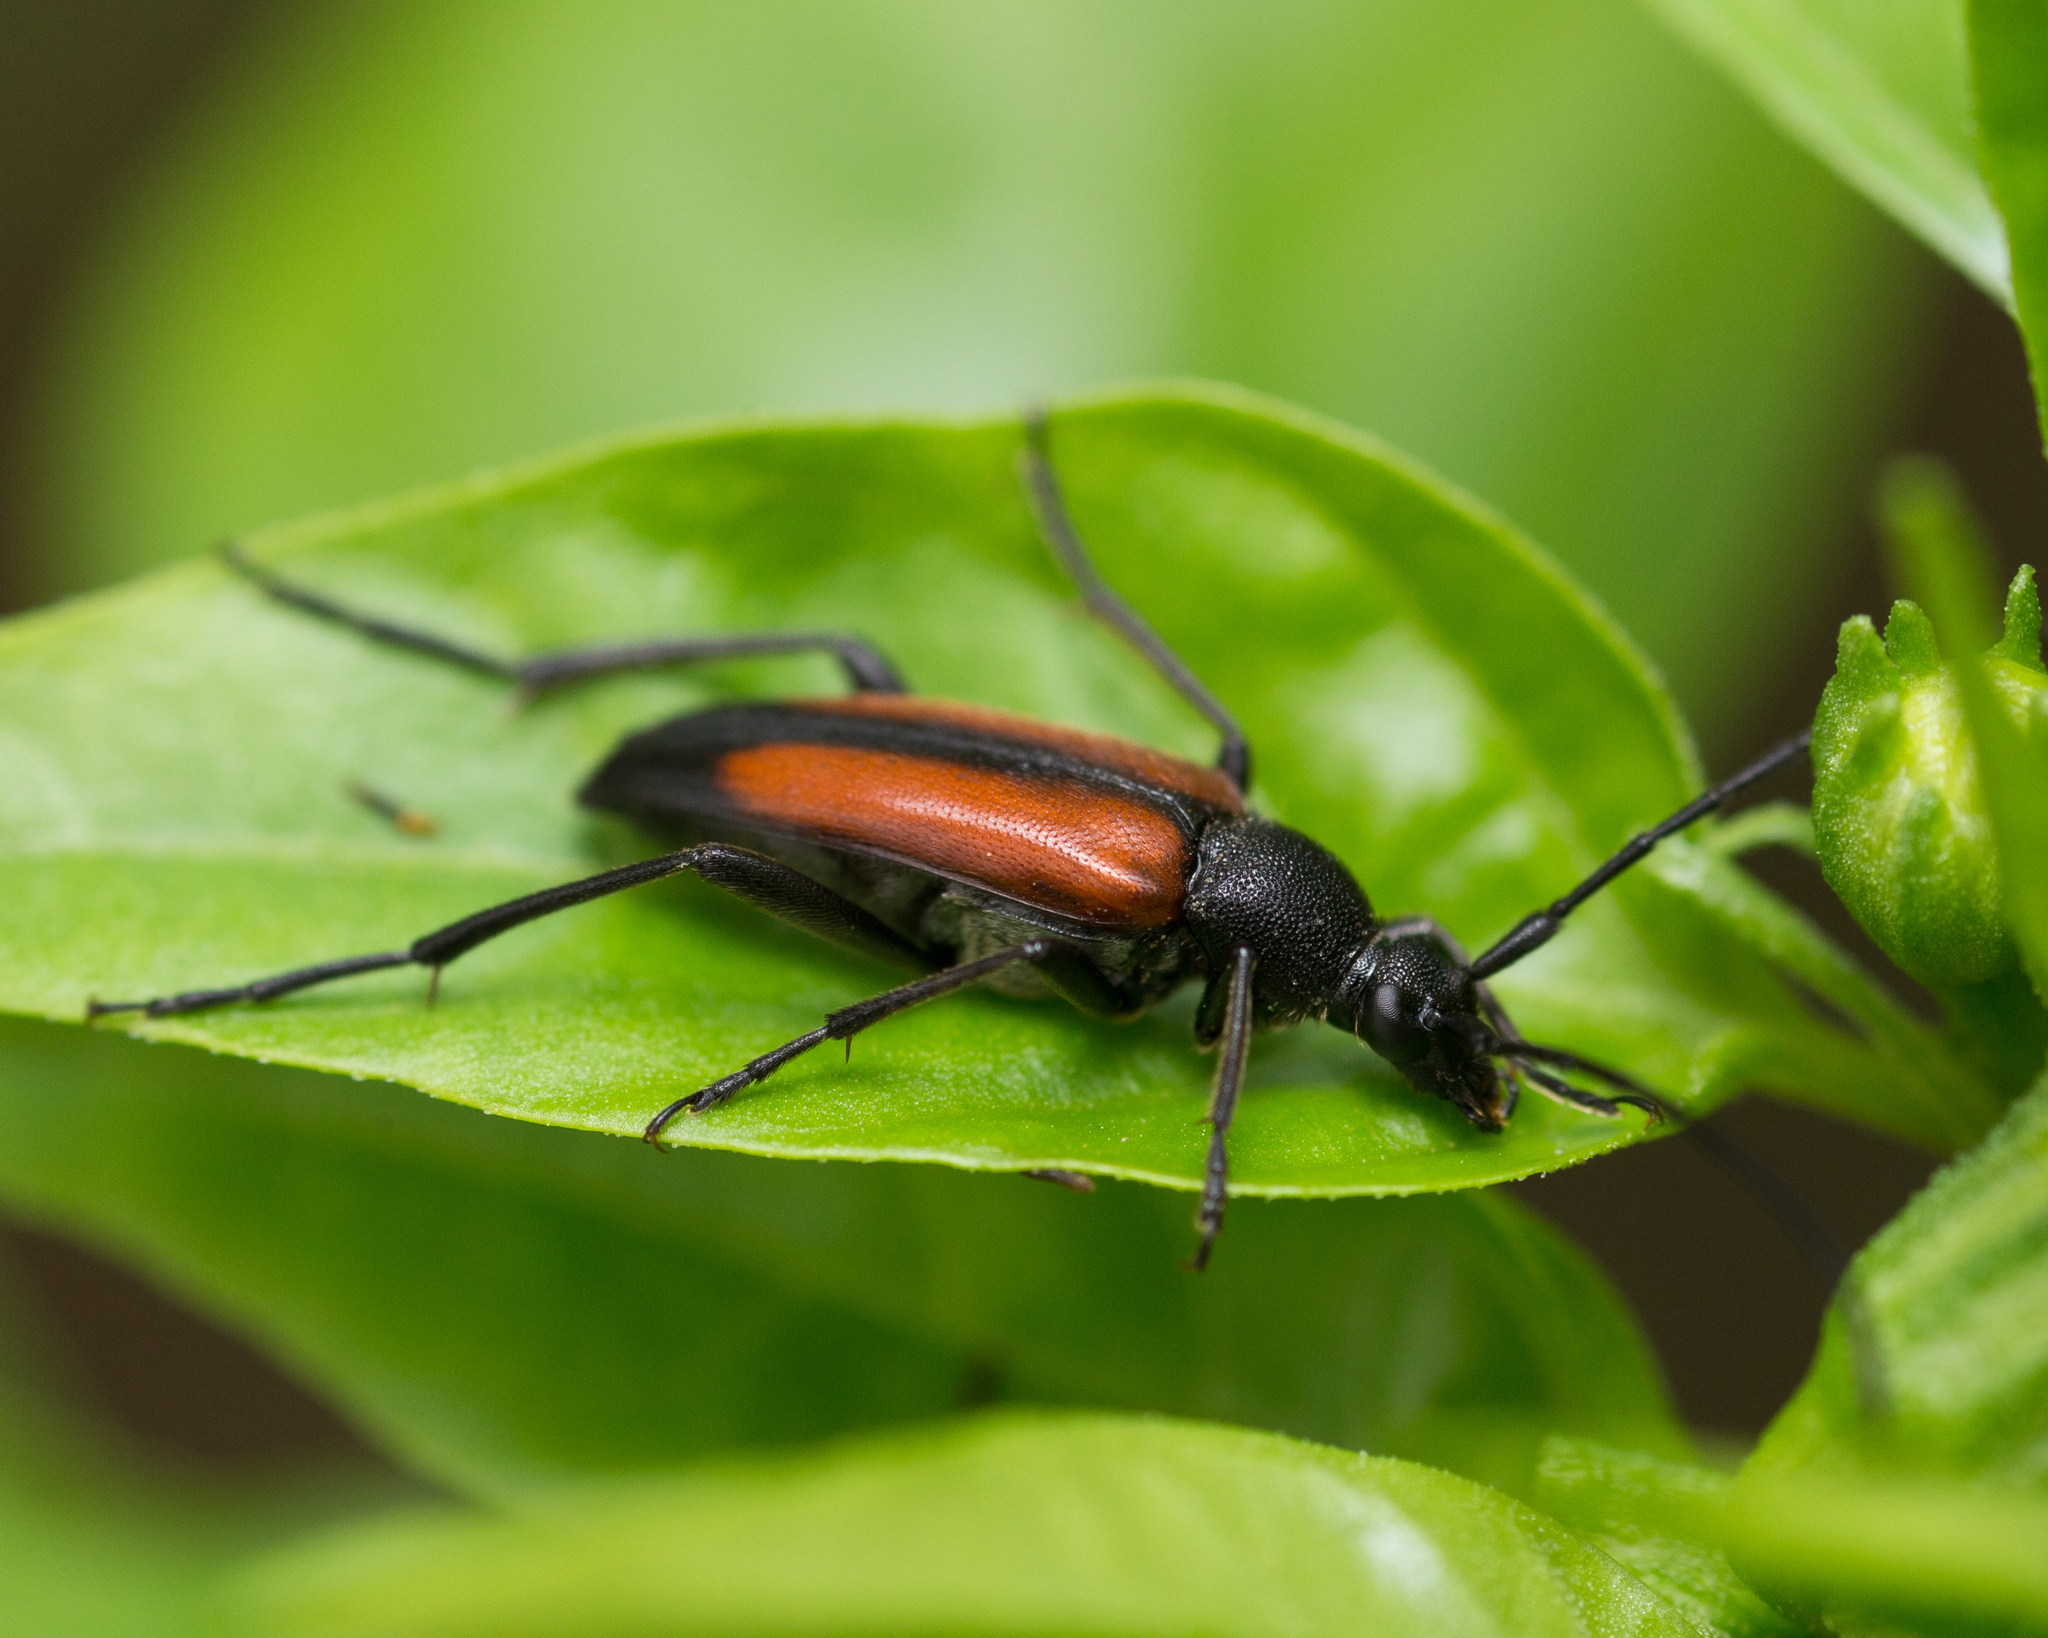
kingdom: Animalia
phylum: Arthropoda
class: Insecta
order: Coleoptera
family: Cerambycidae
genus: Stenurella
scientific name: Stenurella melanura
